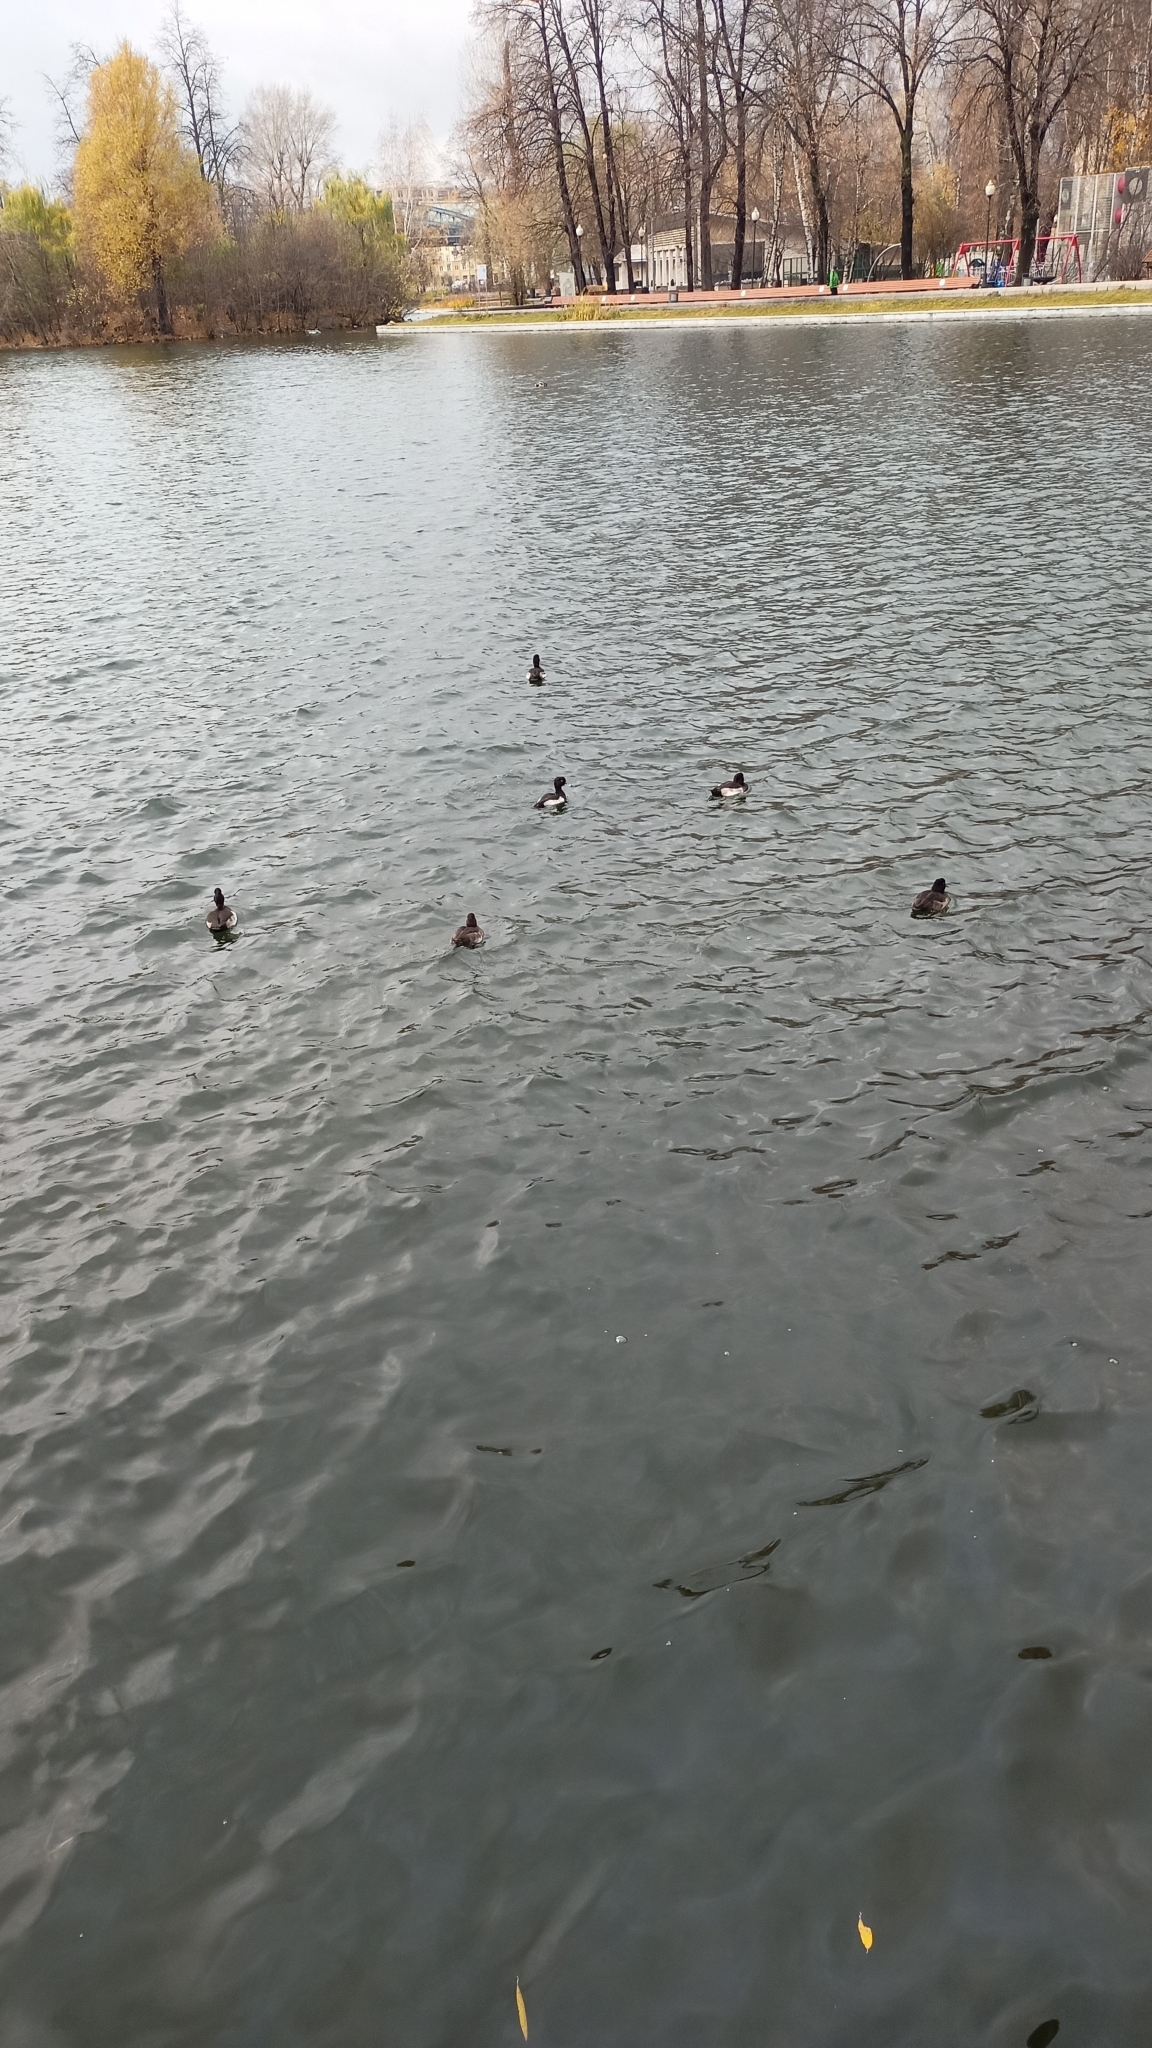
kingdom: Animalia
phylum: Chordata
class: Aves
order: Anseriformes
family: Anatidae
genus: Aythya
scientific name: Aythya fuligula
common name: Tufted duck
